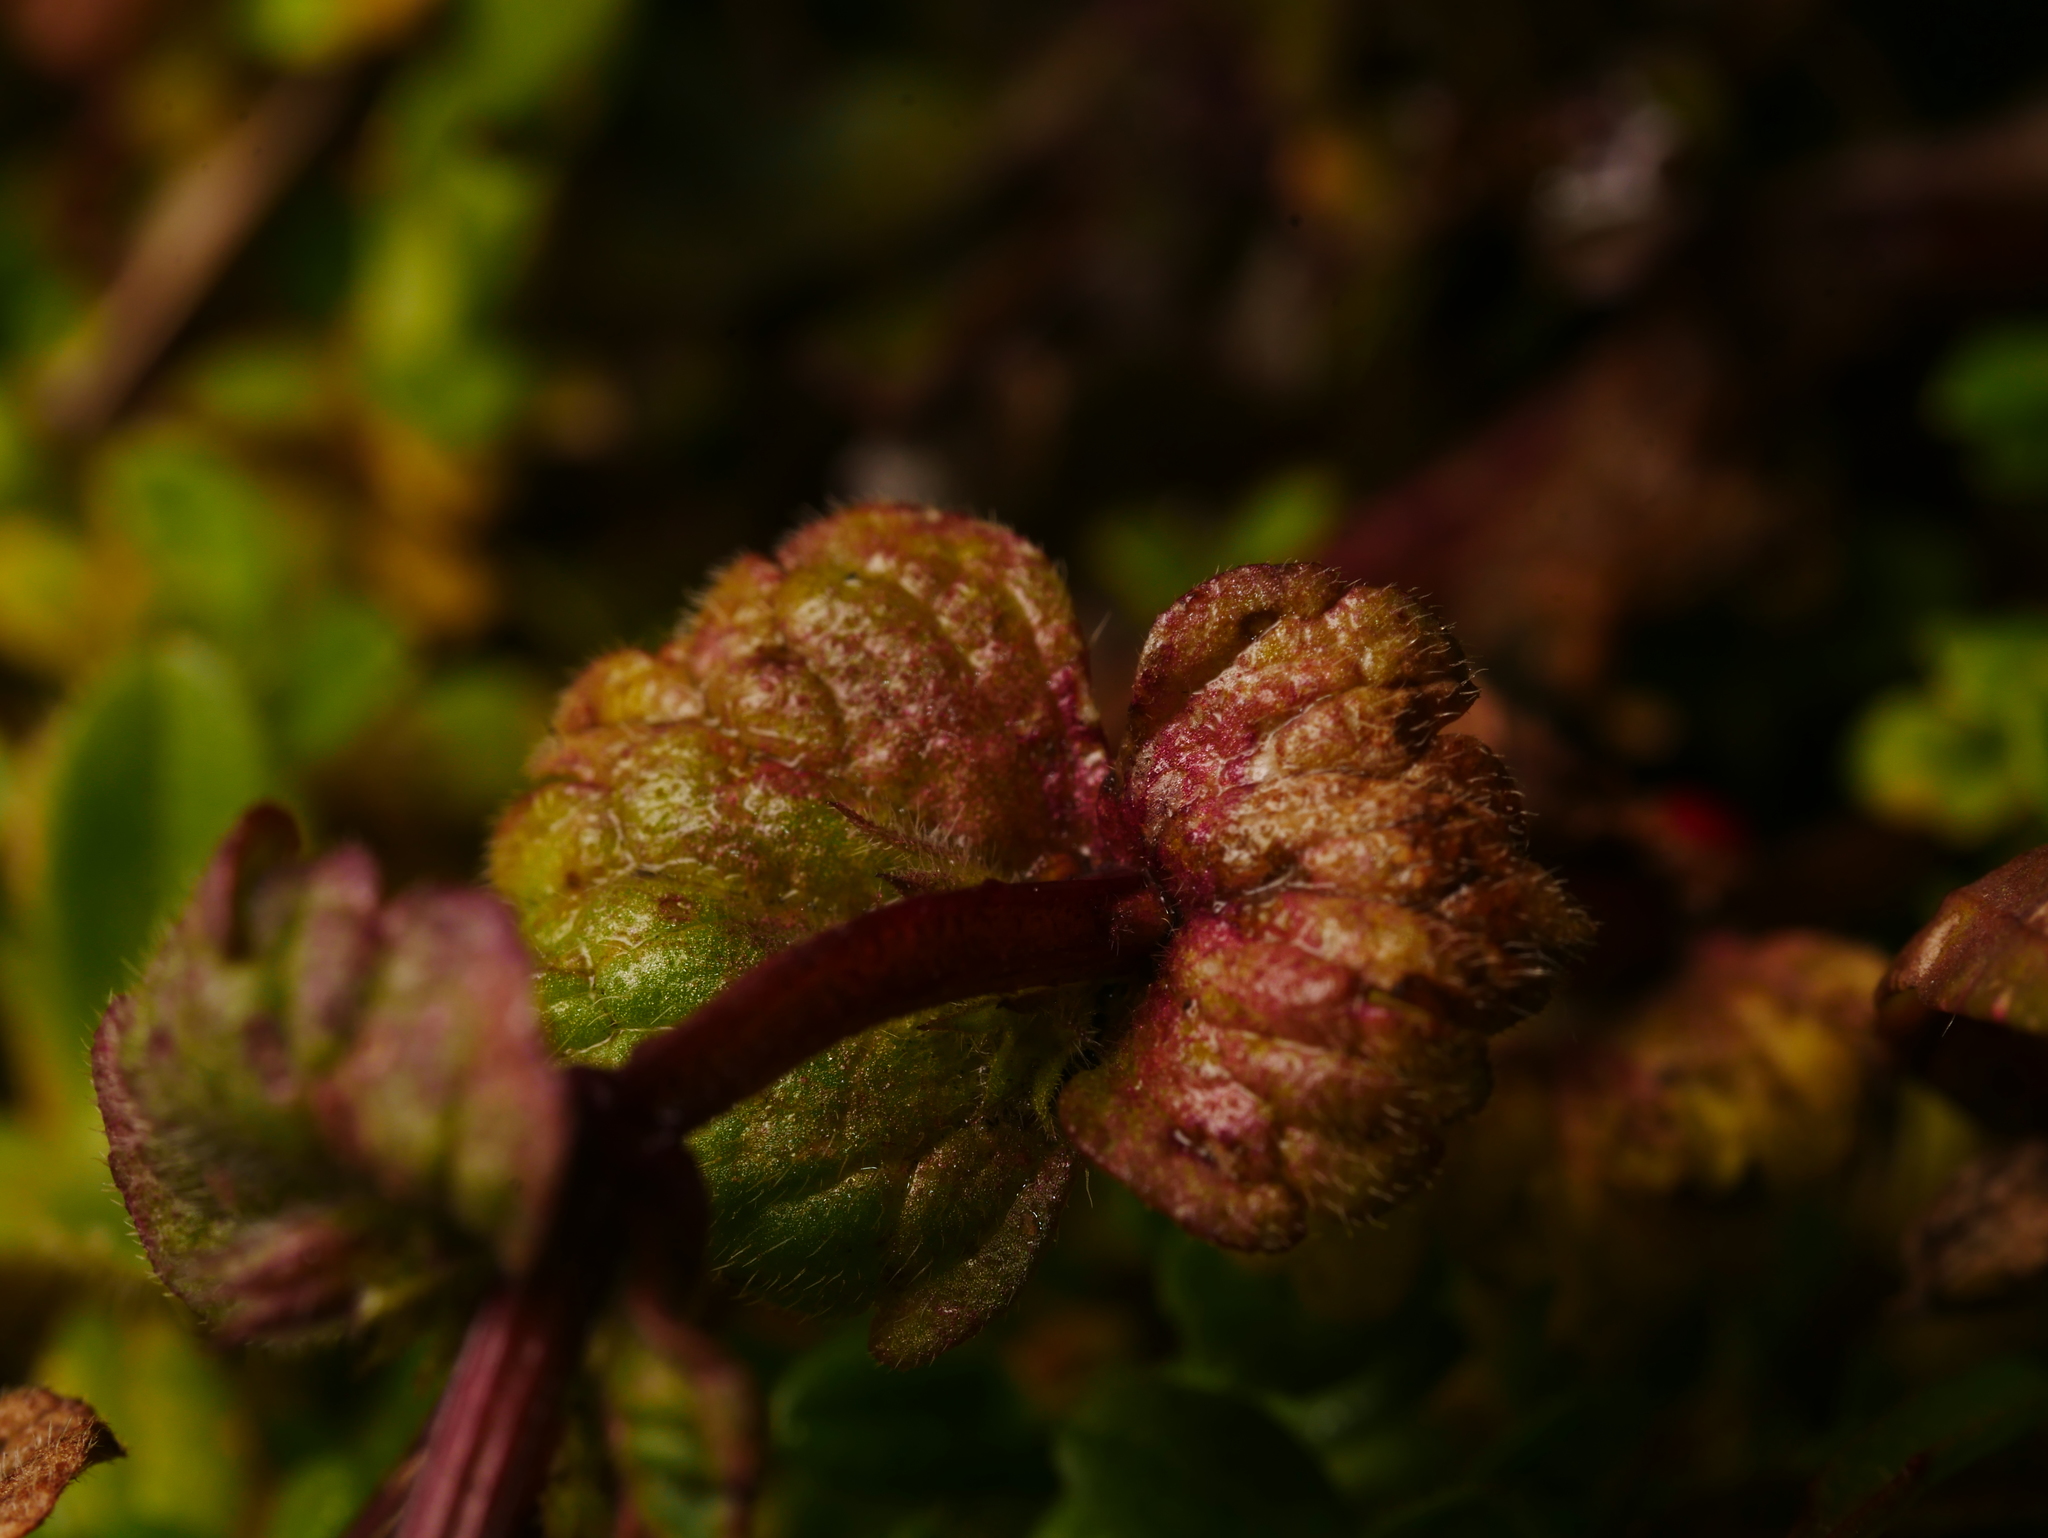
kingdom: Plantae
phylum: Tracheophyta
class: Magnoliopsida
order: Lamiales
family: Lamiaceae
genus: Lamium
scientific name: Lamium amplexicaule
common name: Henbit dead-nettle
